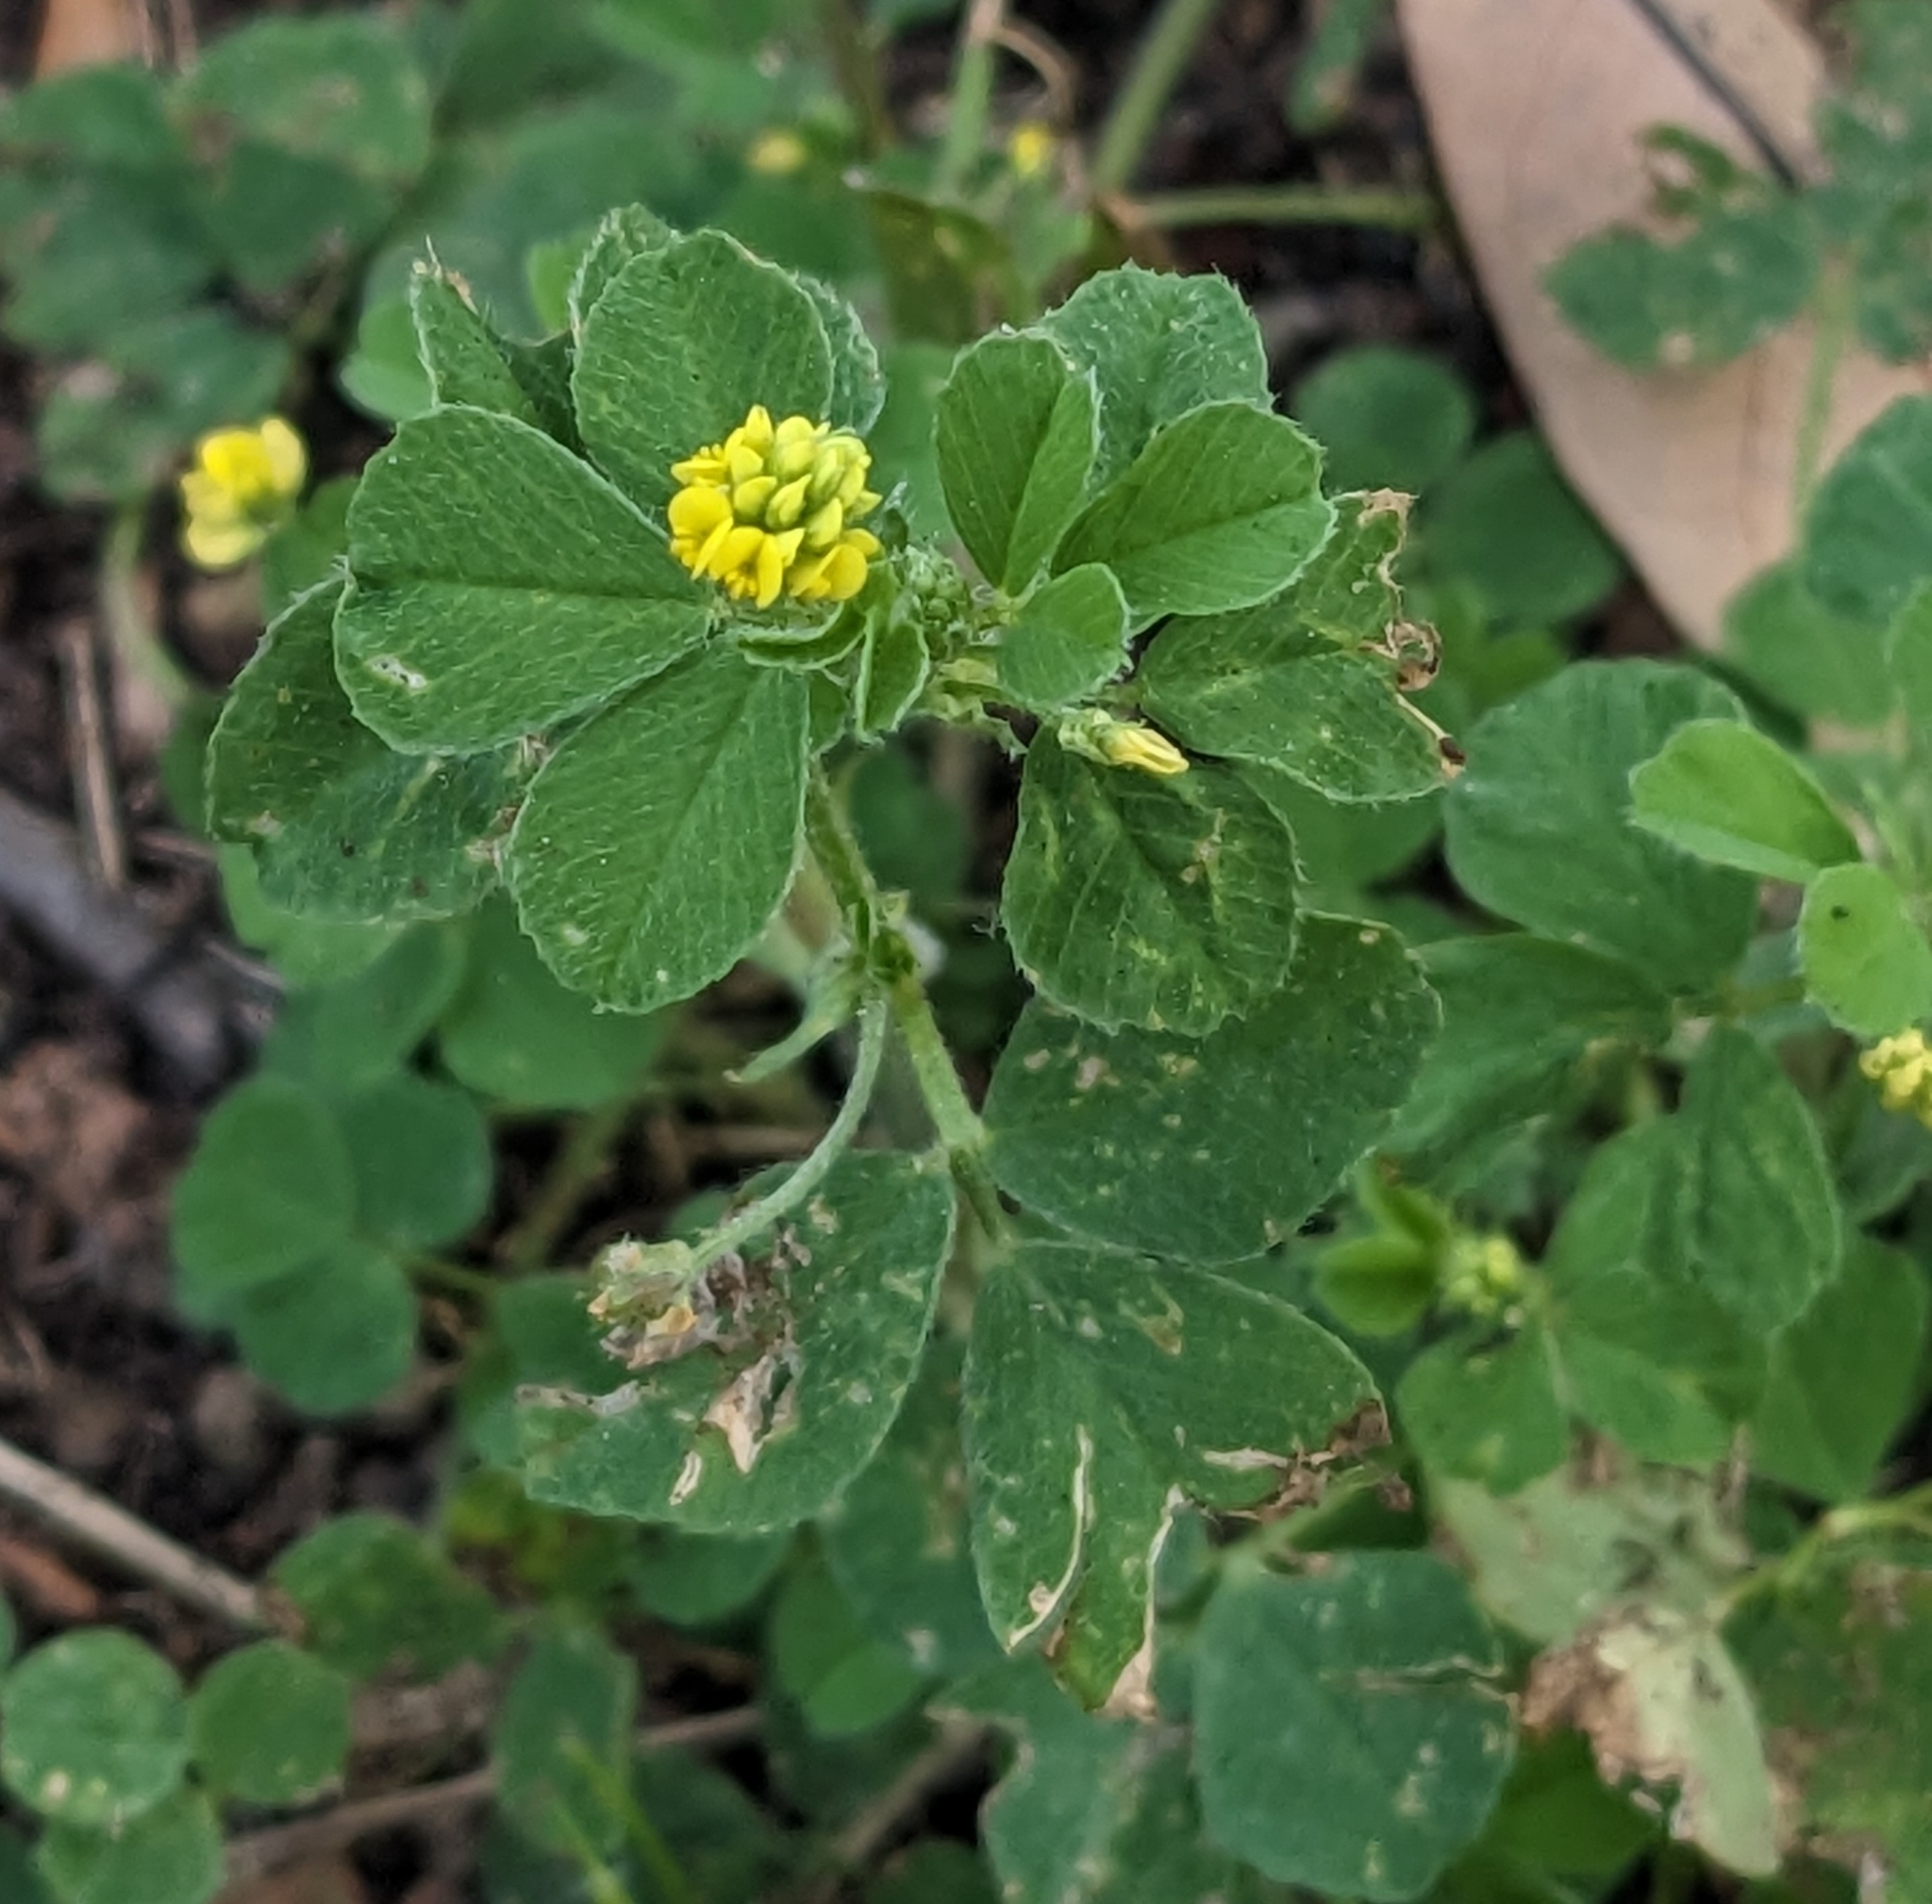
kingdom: Plantae
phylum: Tracheophyta
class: Magnoliopsida
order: Fabales
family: Fabaceae
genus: Medicago
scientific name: Medicago lupulina
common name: Black medick
